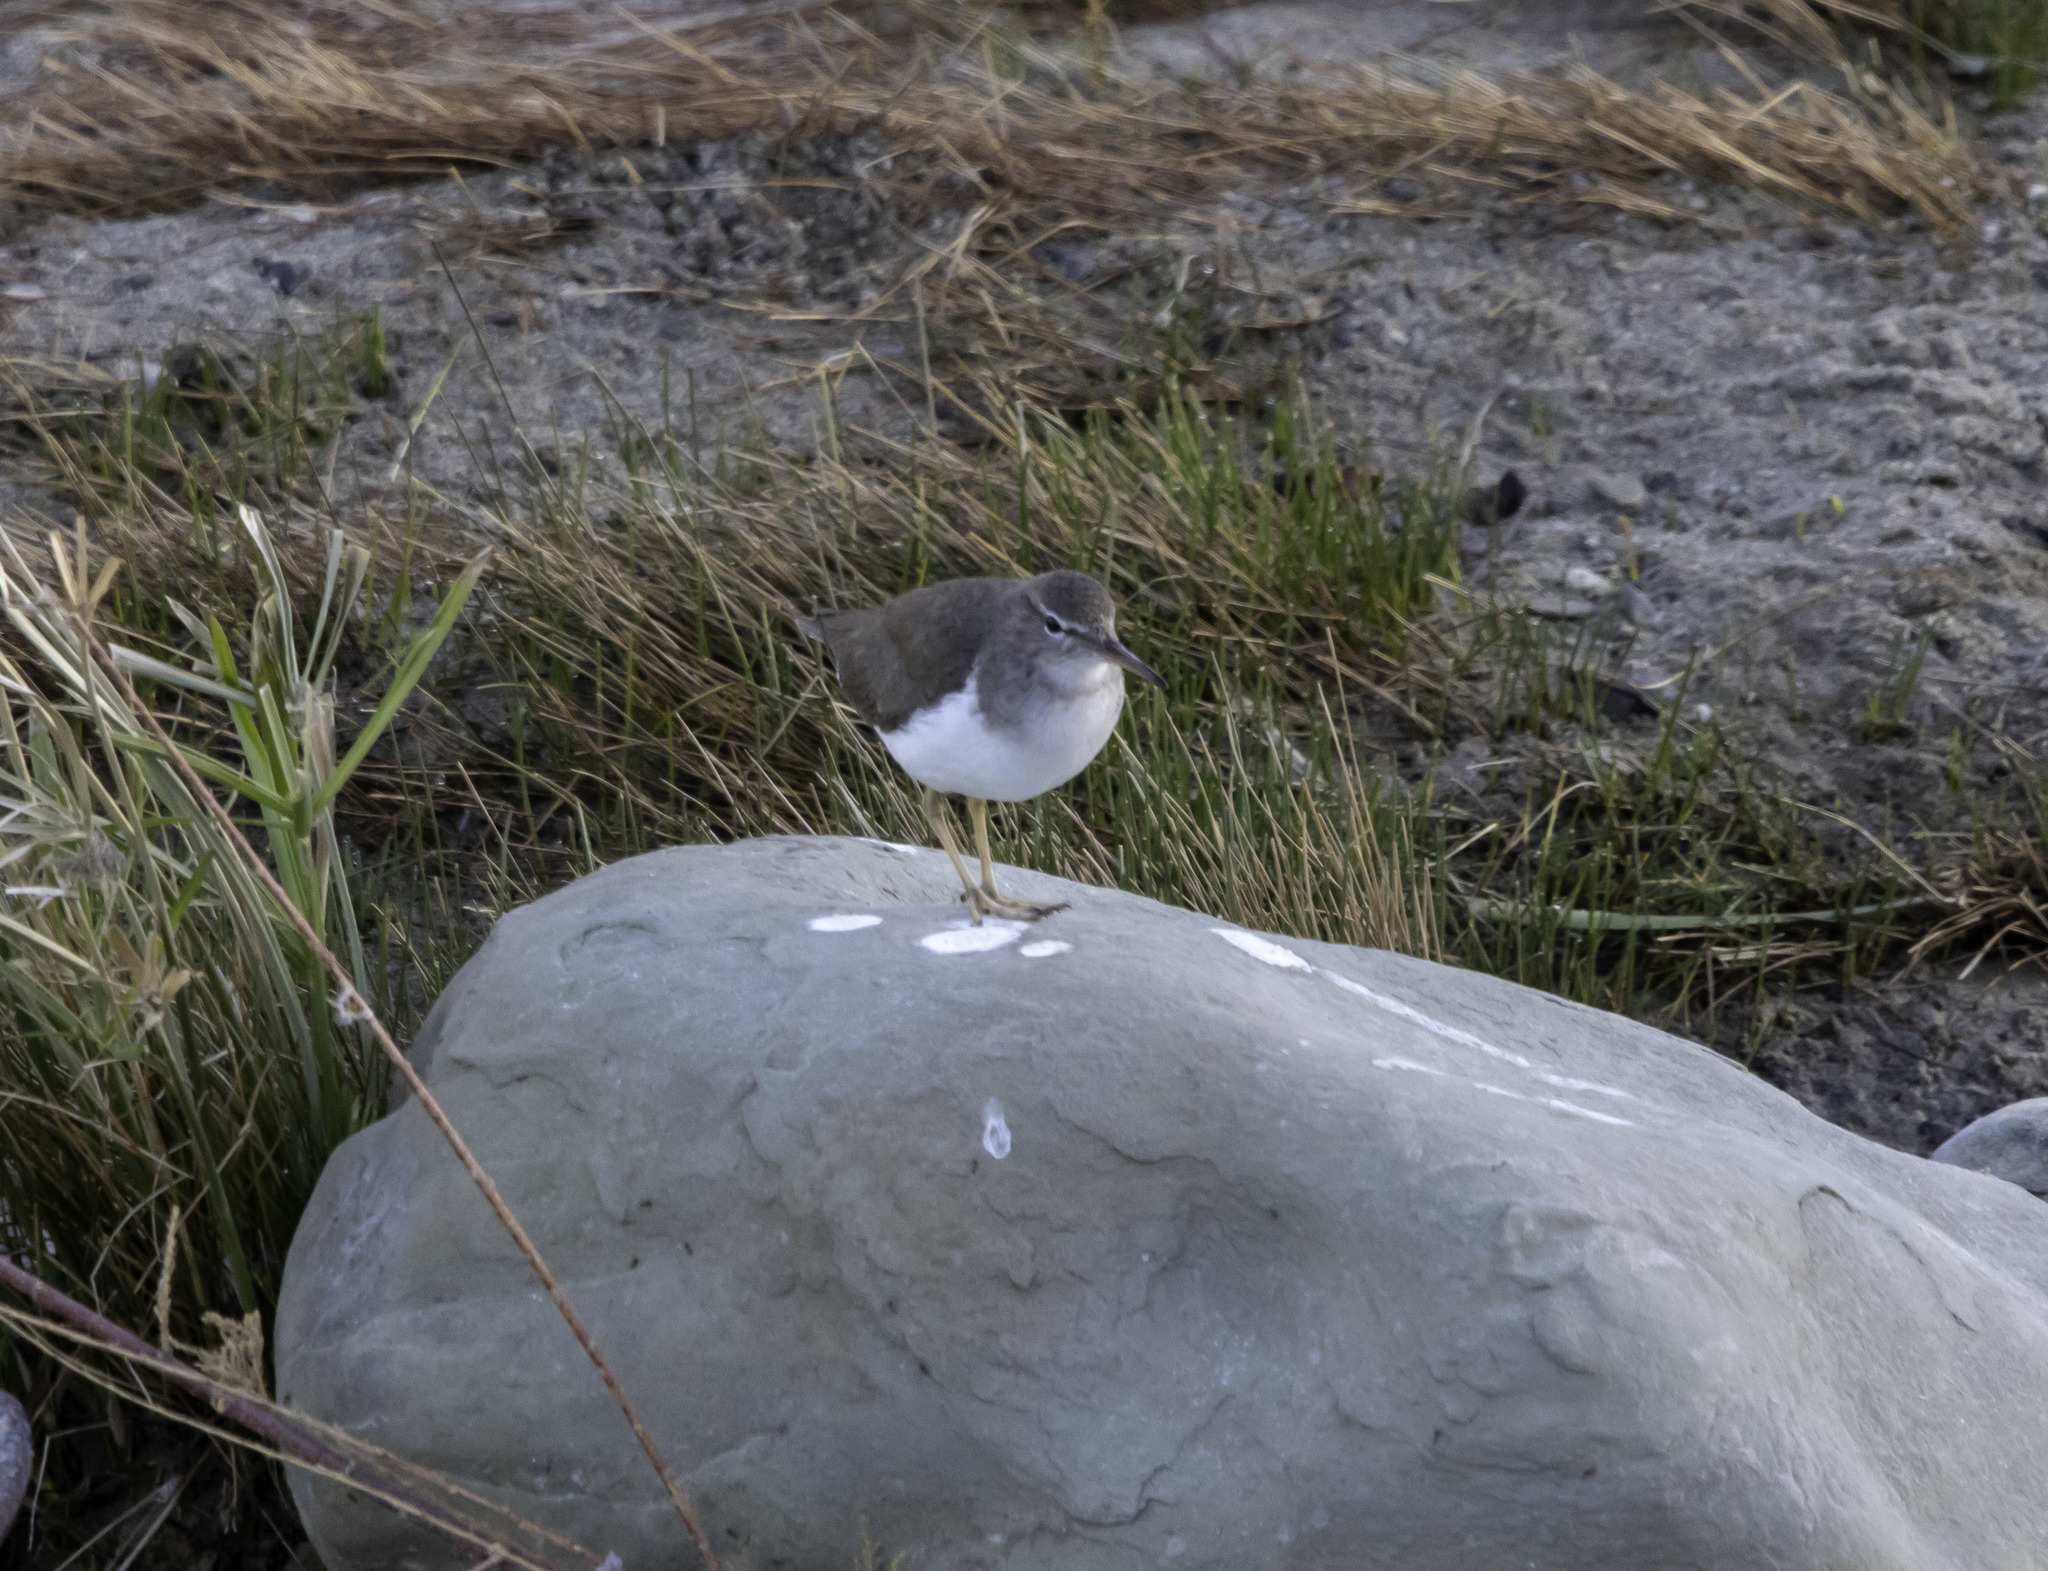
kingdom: Animalia
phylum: Chordata
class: Aves
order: Charadriiformes
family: Scolopacidae
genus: Actitis
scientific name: Actitis macularius
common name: Spotted sandpiper
